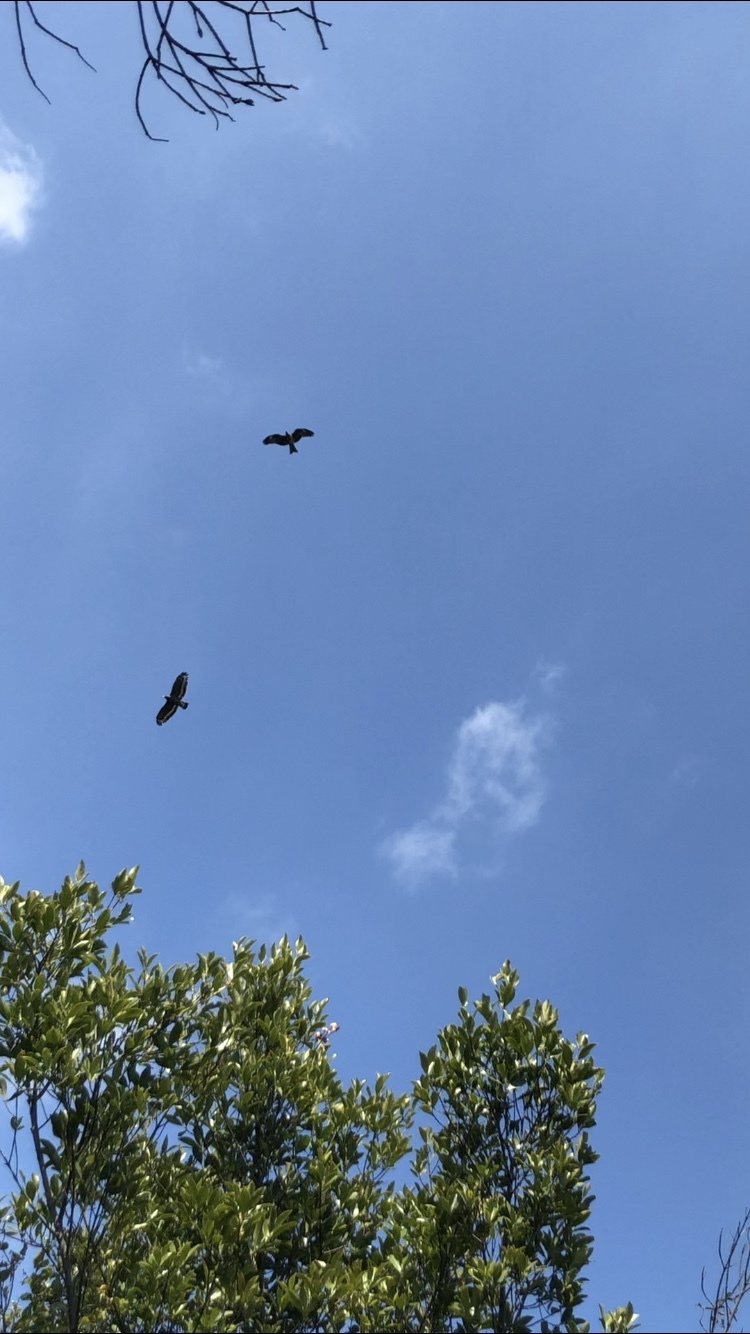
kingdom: Animalia
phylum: Chordata
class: Aves
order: Accipitriformes
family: Accipitridae
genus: Spilornis
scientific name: Spilornis cheela
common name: Crested serpent eagle
